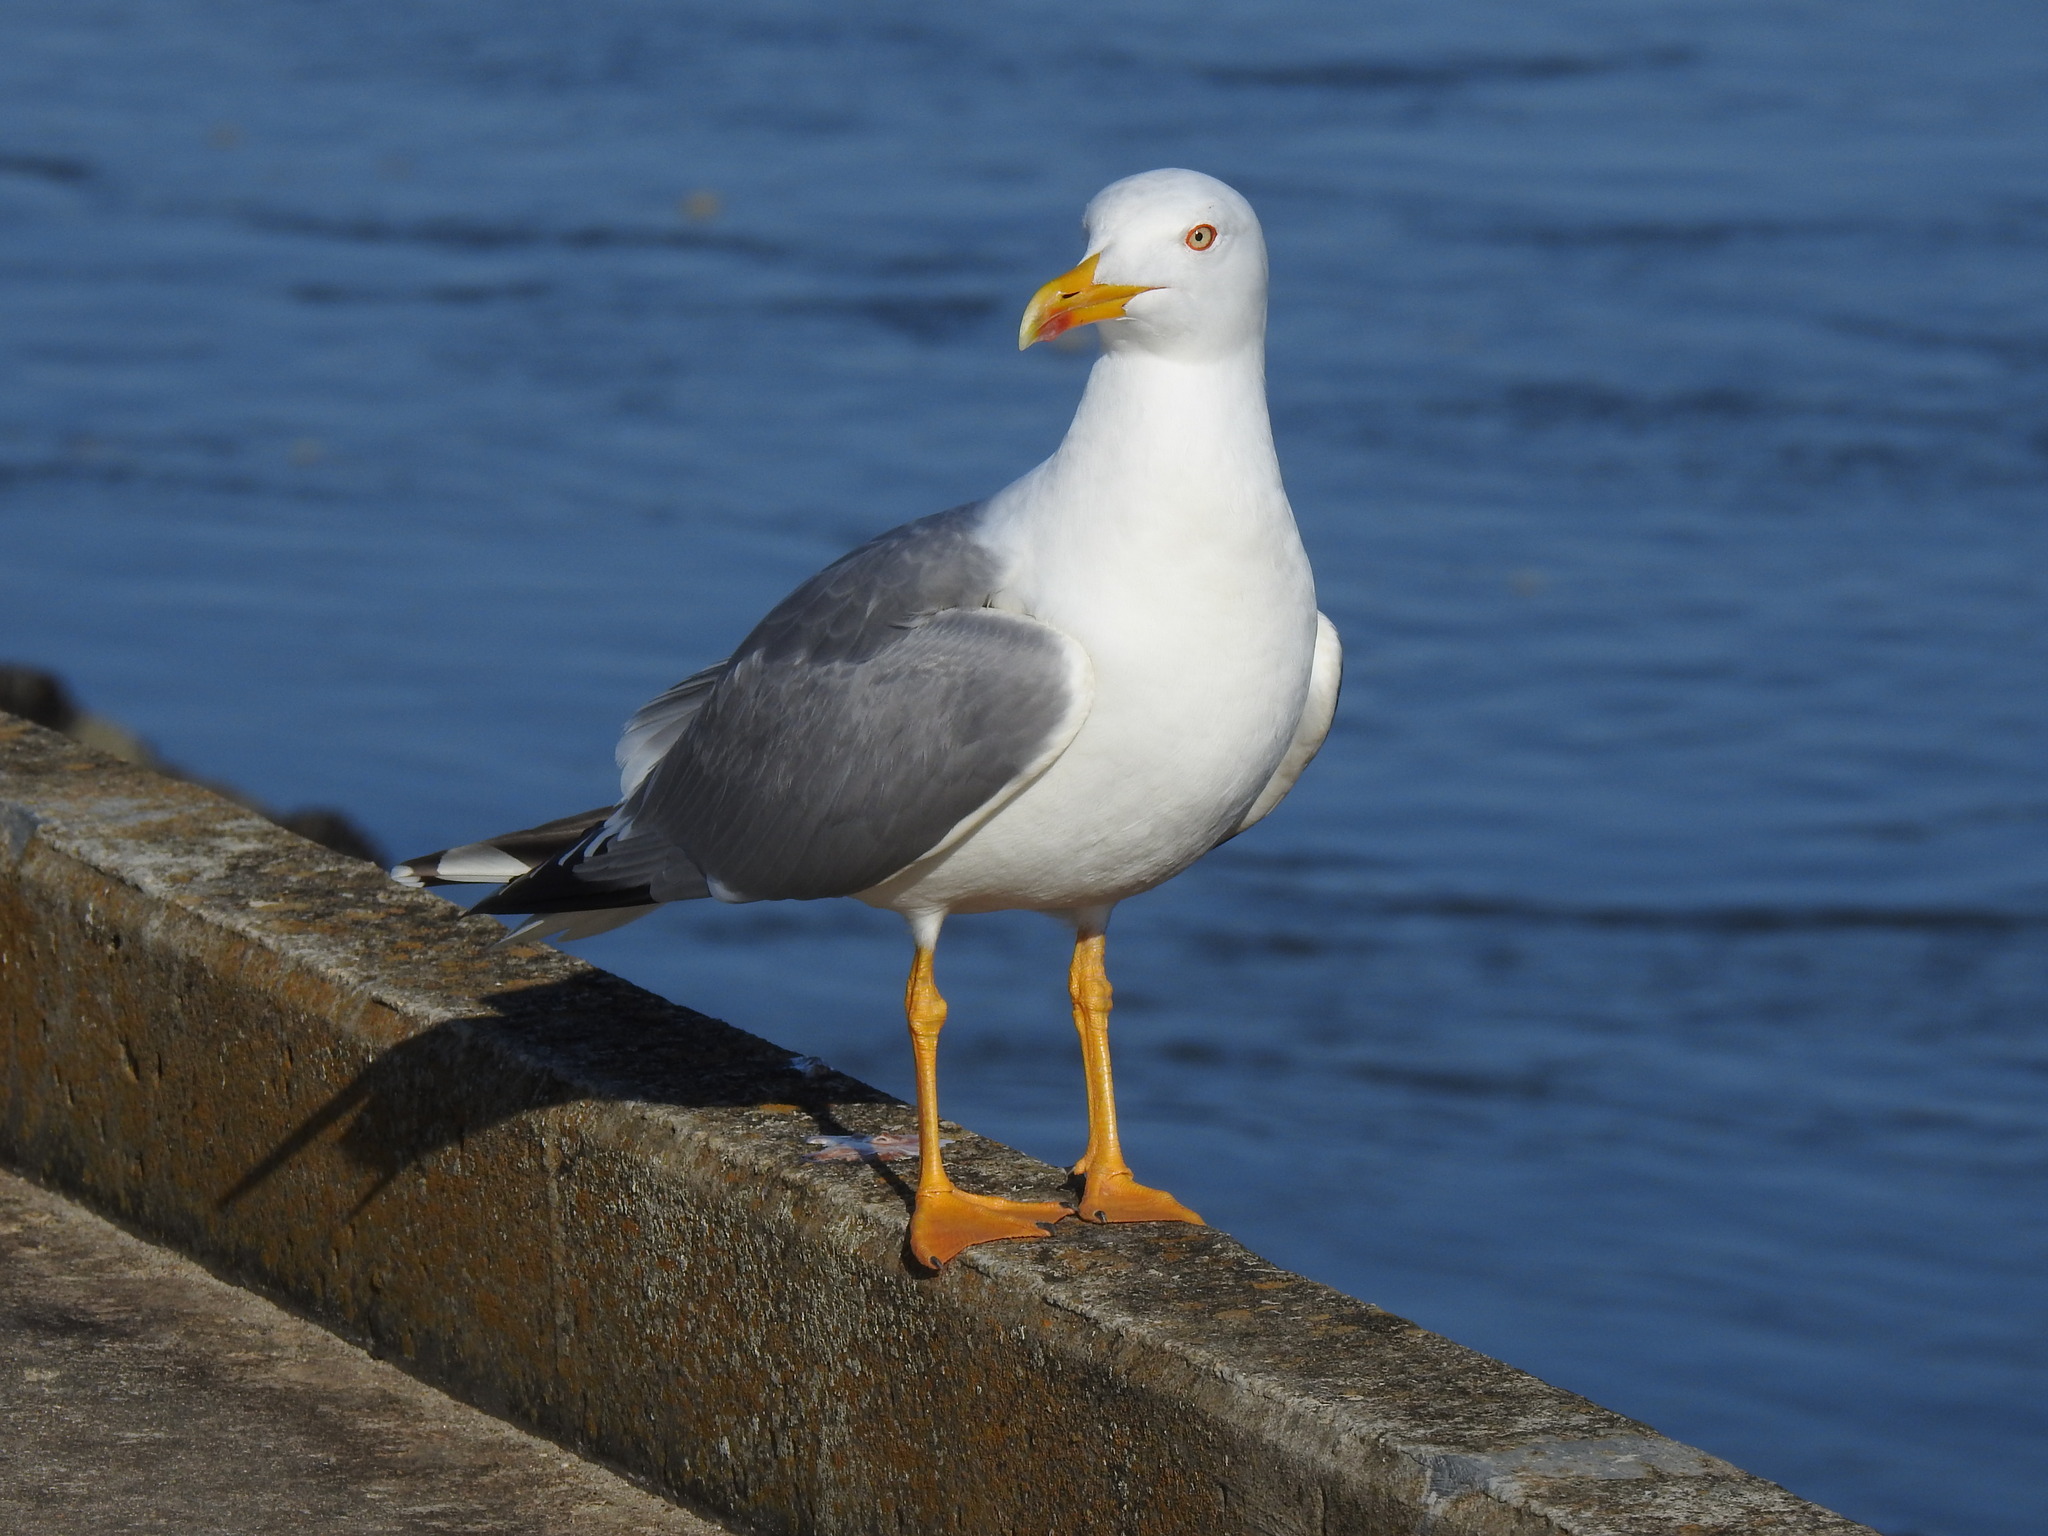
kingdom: Animalia
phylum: Chordata
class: Aves
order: Charadriiformes
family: Laridae
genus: Larus
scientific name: Larus michahellis
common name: Yellow-legged gull
